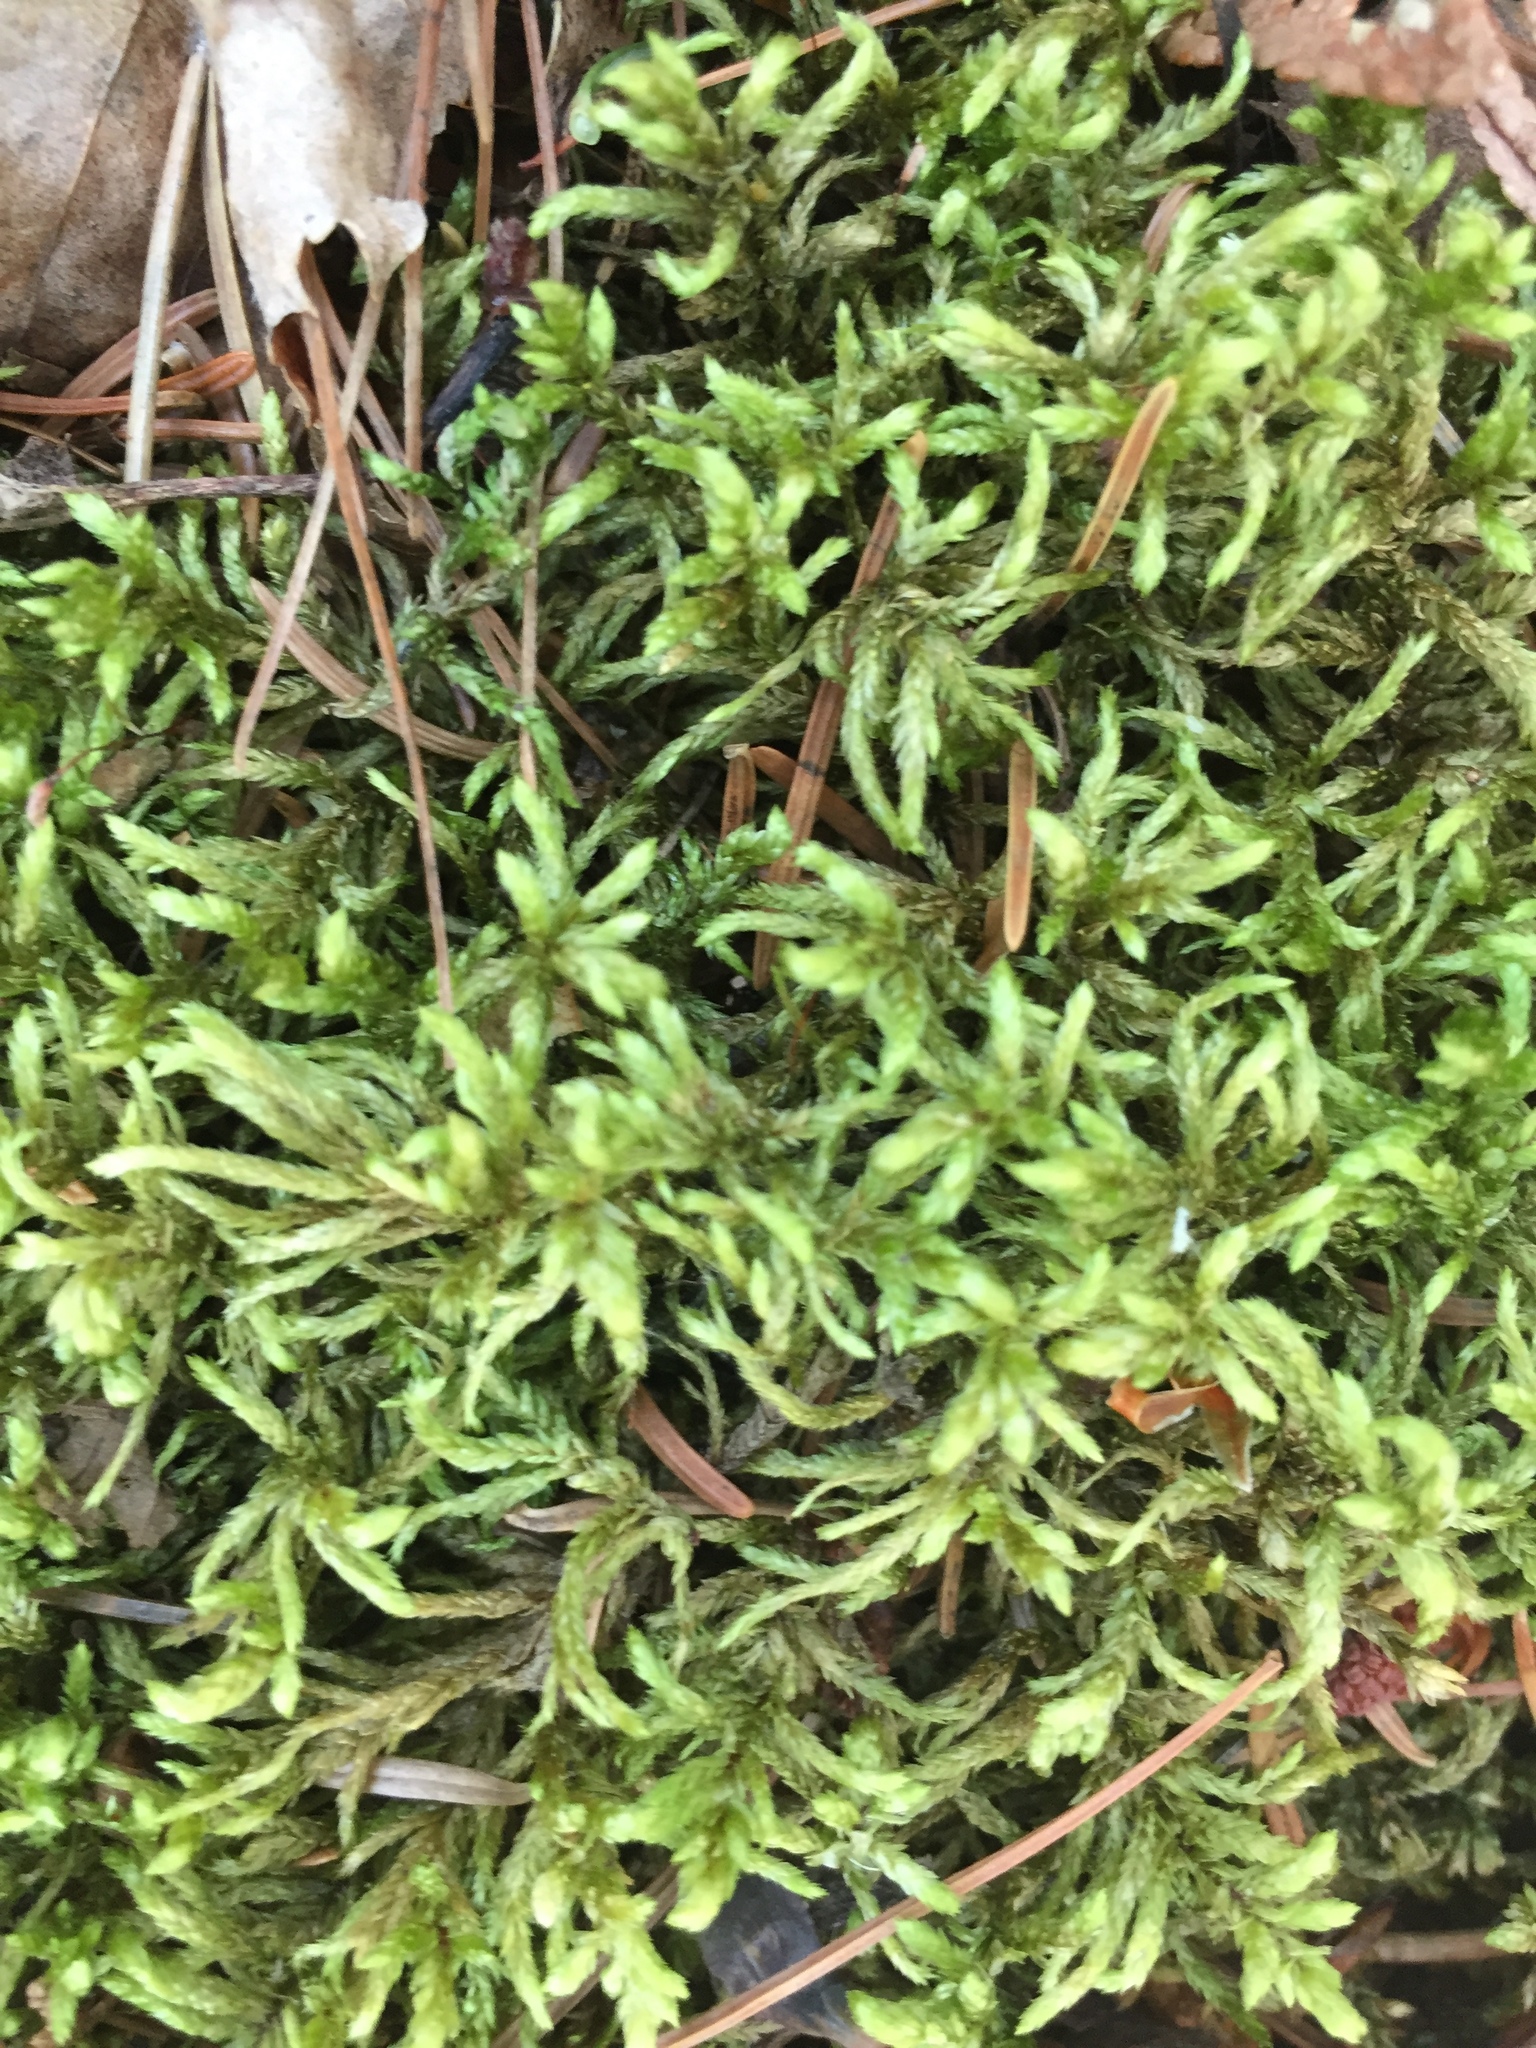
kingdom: Plantae
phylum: Bryophyta
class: Bryopsida
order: Hypnales
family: Hylocomiaceae
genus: Pleurozium
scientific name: Pleurozium schreberi
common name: Red-stemmed feather moss
